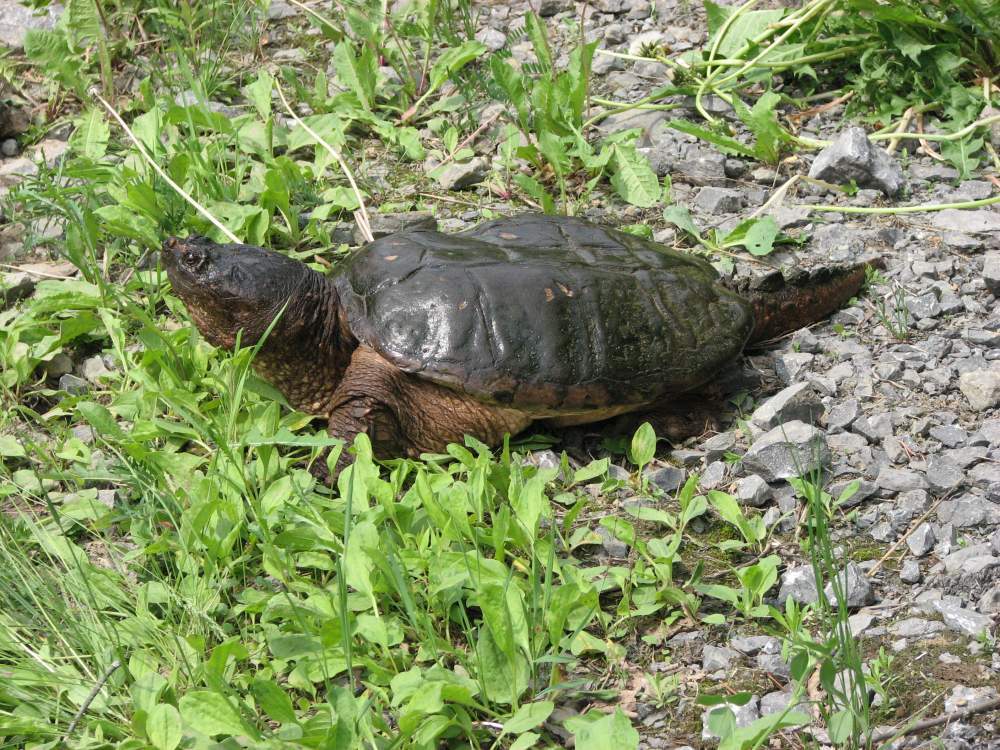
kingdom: Animalia
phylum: Chordata
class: Testudines
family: Chelydridae
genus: Chelydra
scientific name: Chelydra serpentina
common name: Common snapping turtle
